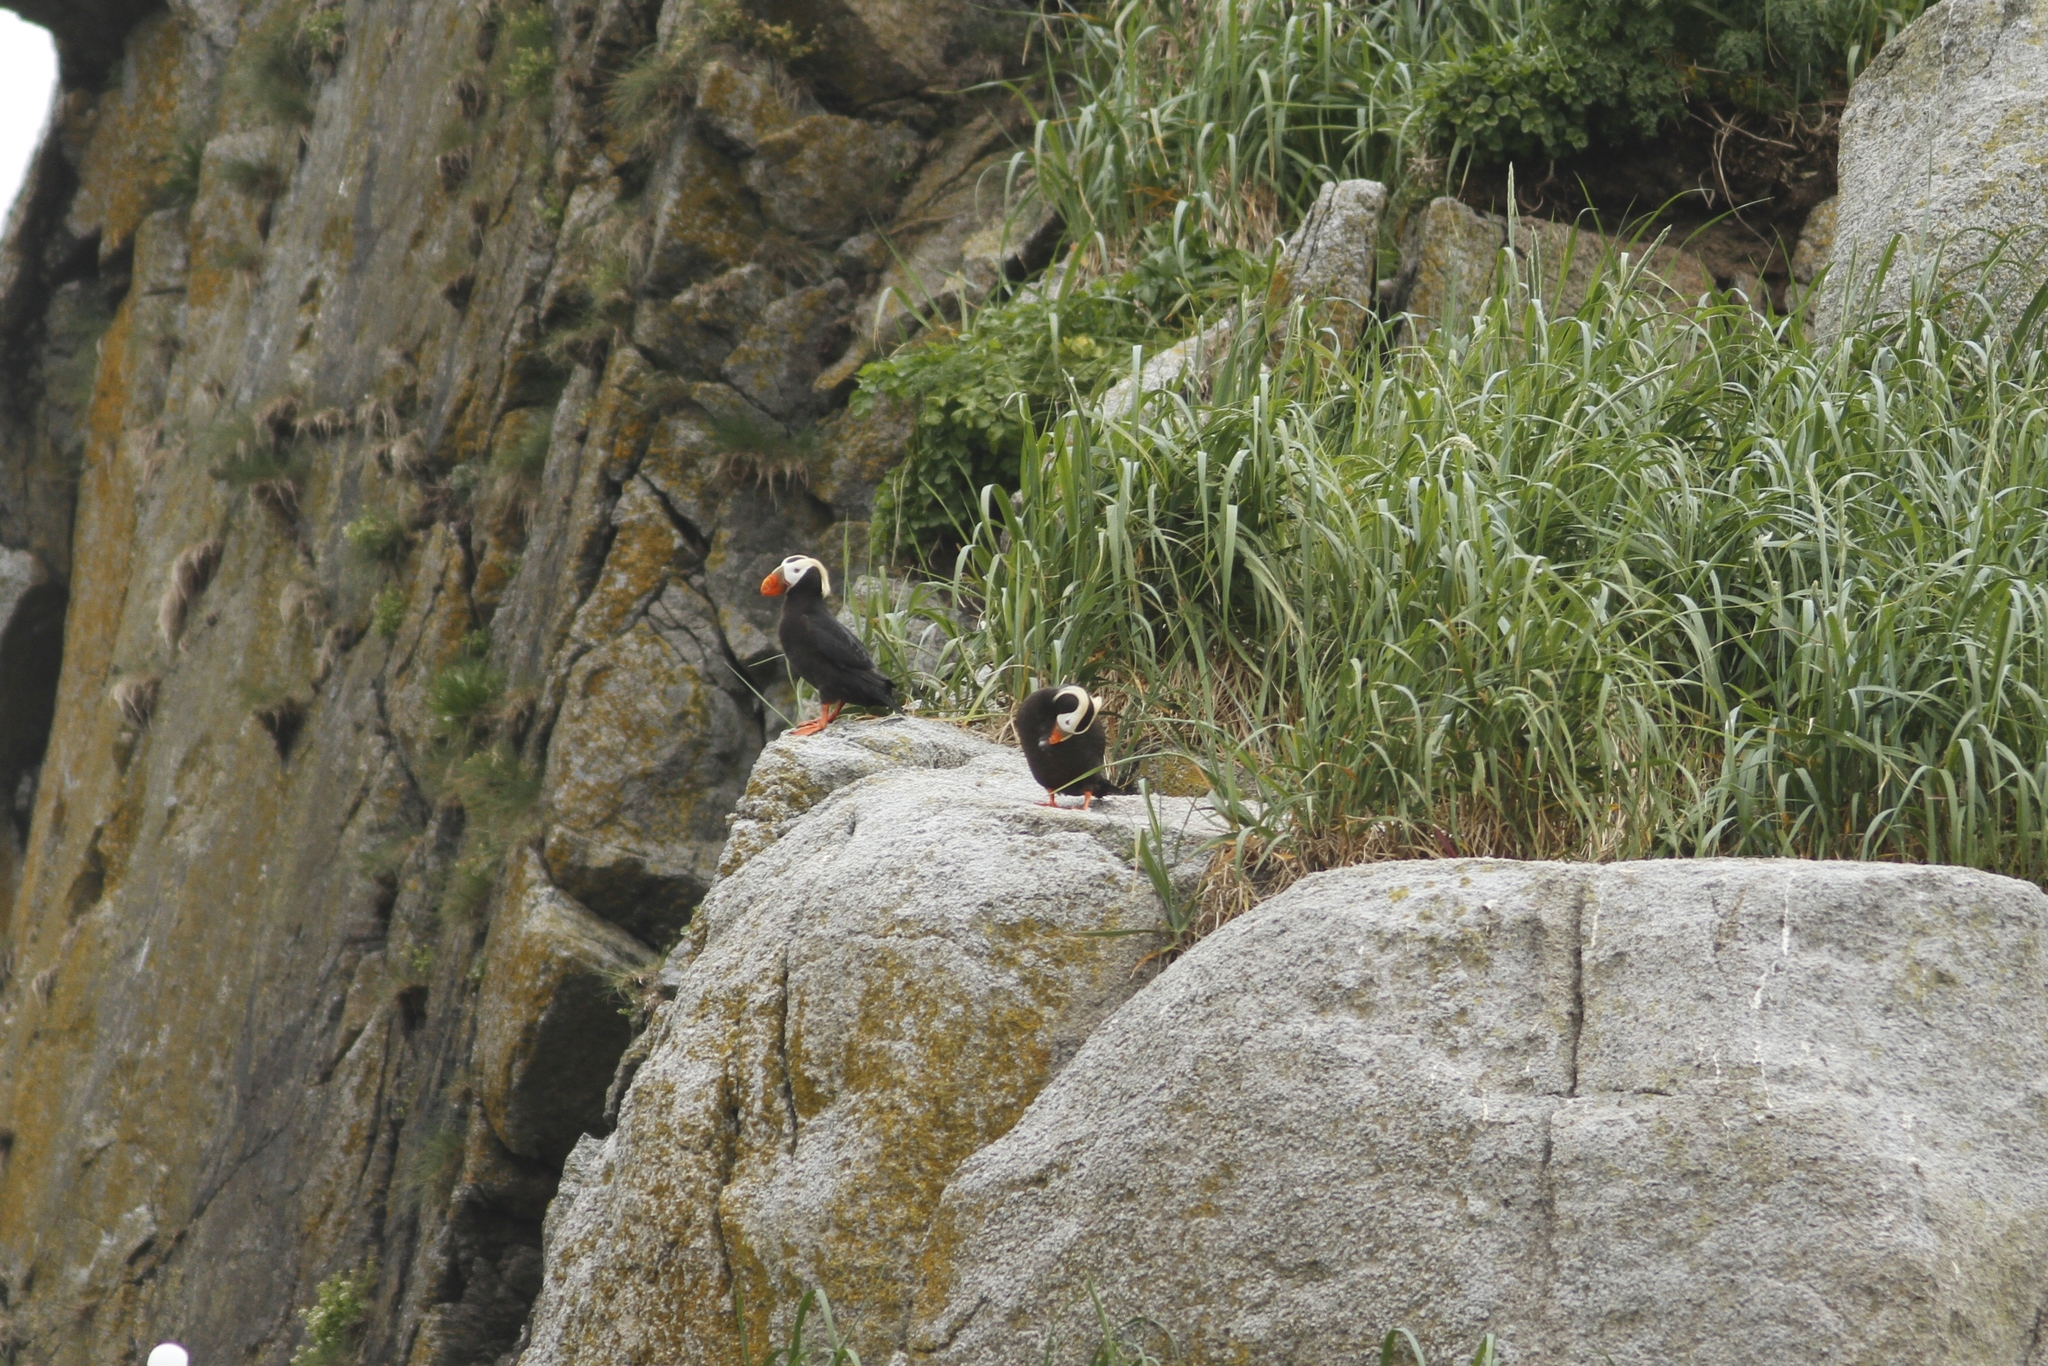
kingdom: Animalia
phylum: Chordata
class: Aves
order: Charadriiformes
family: Alcidae
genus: Fratercula
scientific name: Fratercula cirrhata
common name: Tufted puffin
